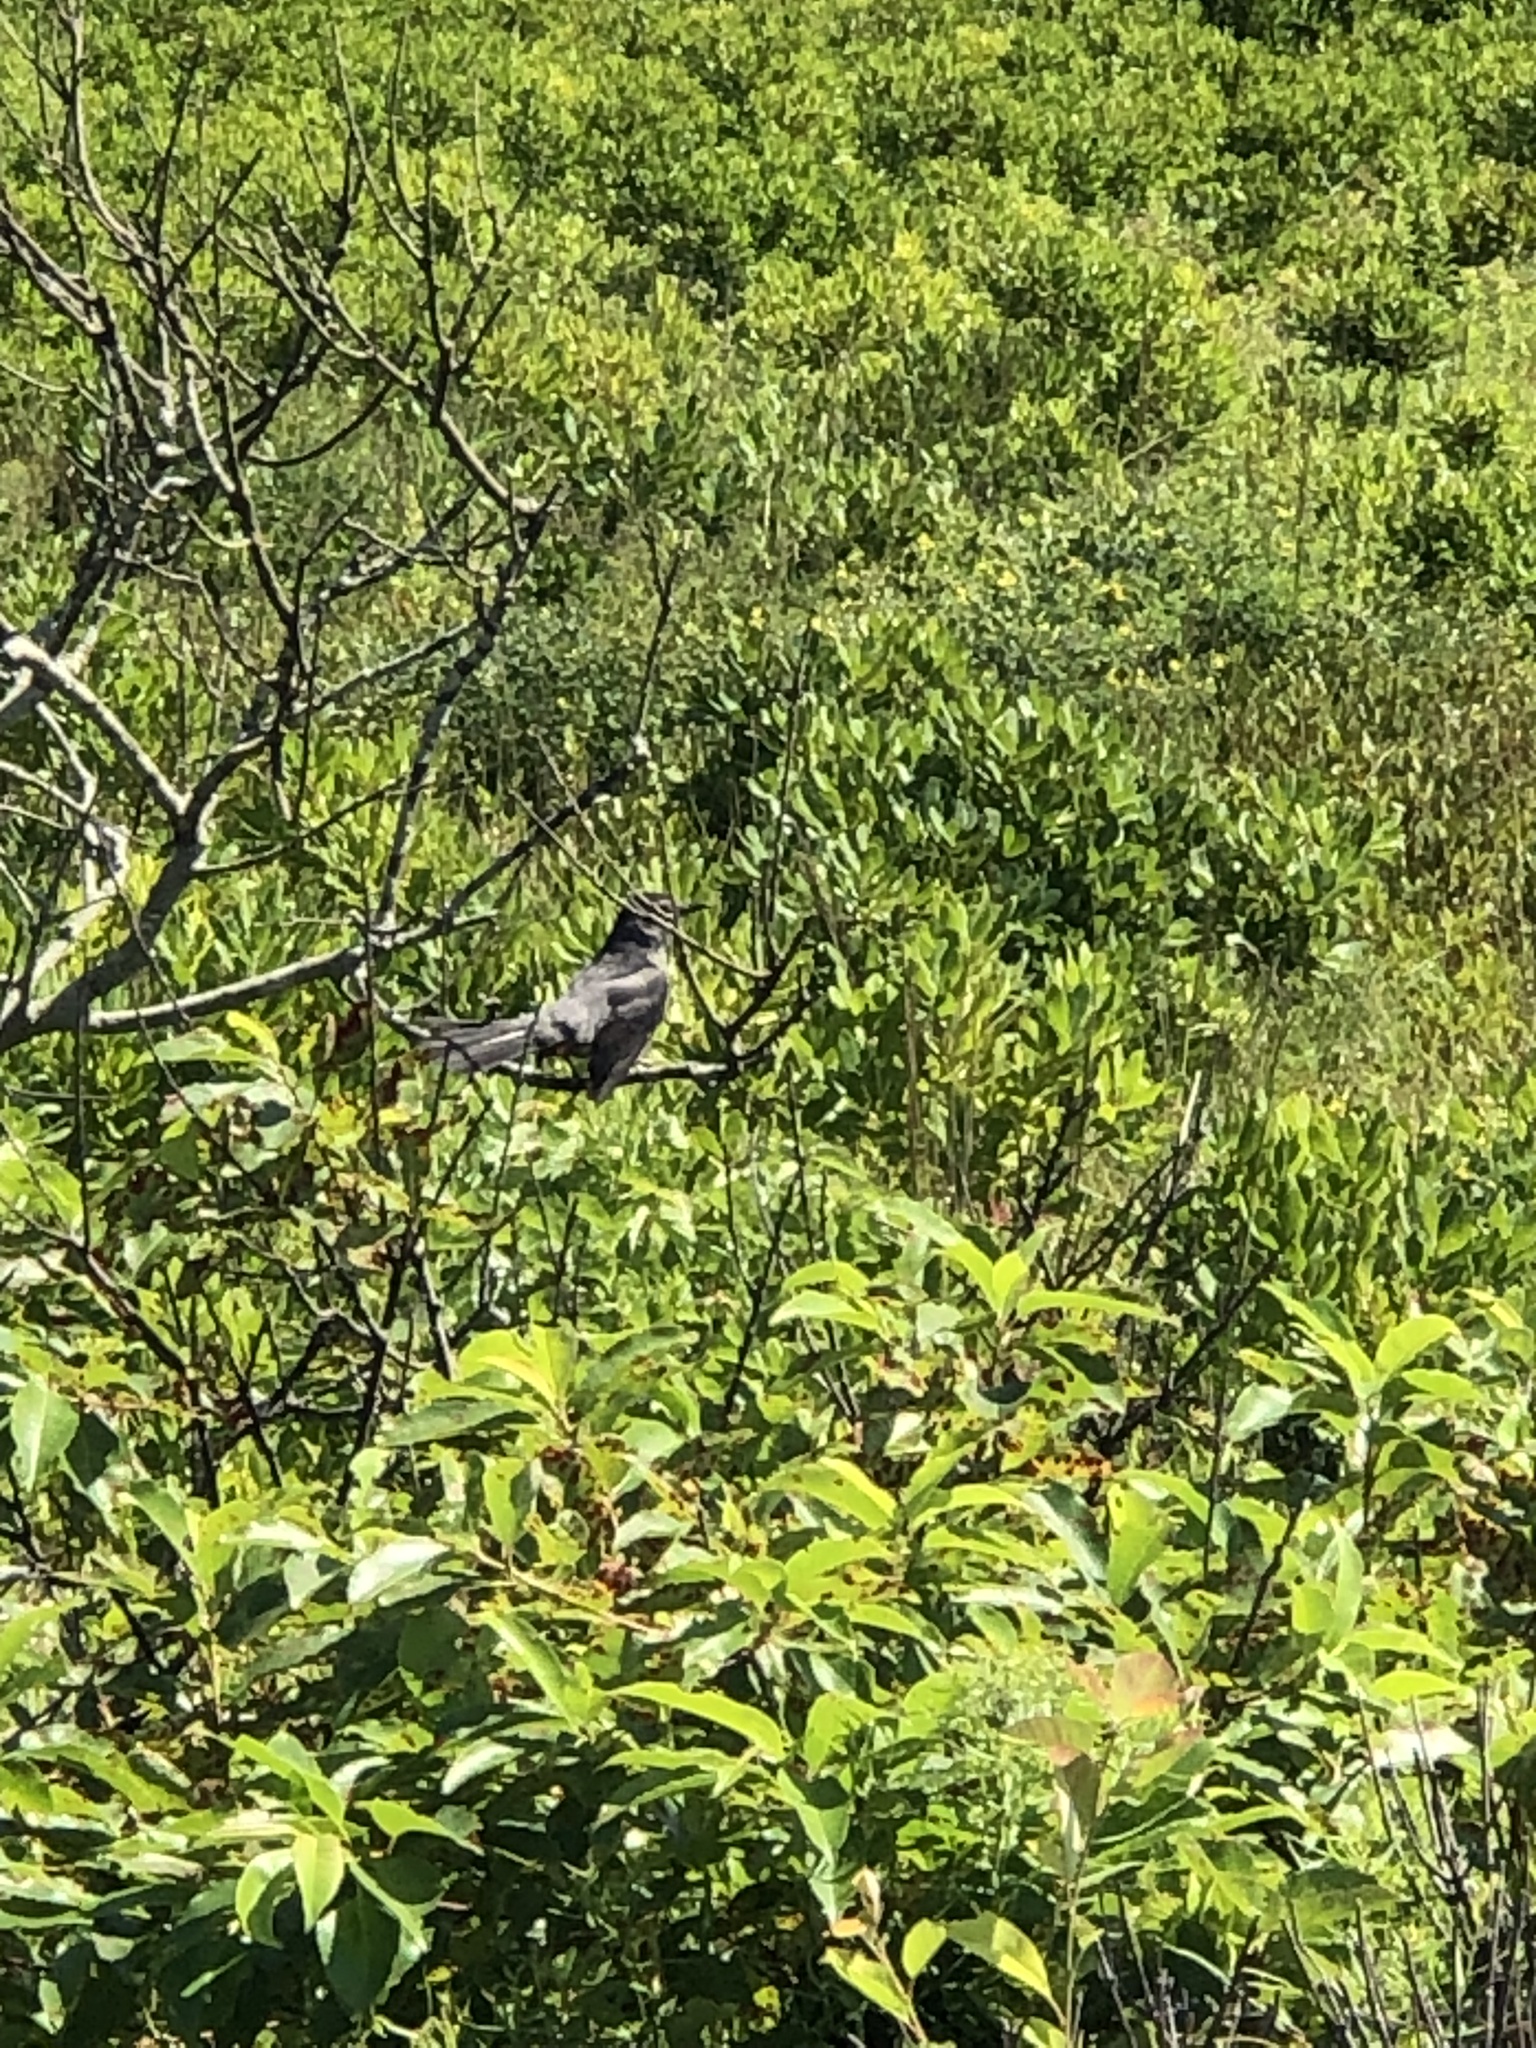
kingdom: Animalia
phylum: Chordata
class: Aves
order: Passeriformes
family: Mimidae
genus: Dumetella
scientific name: Dumetella carolinensis
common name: Gray catbird
